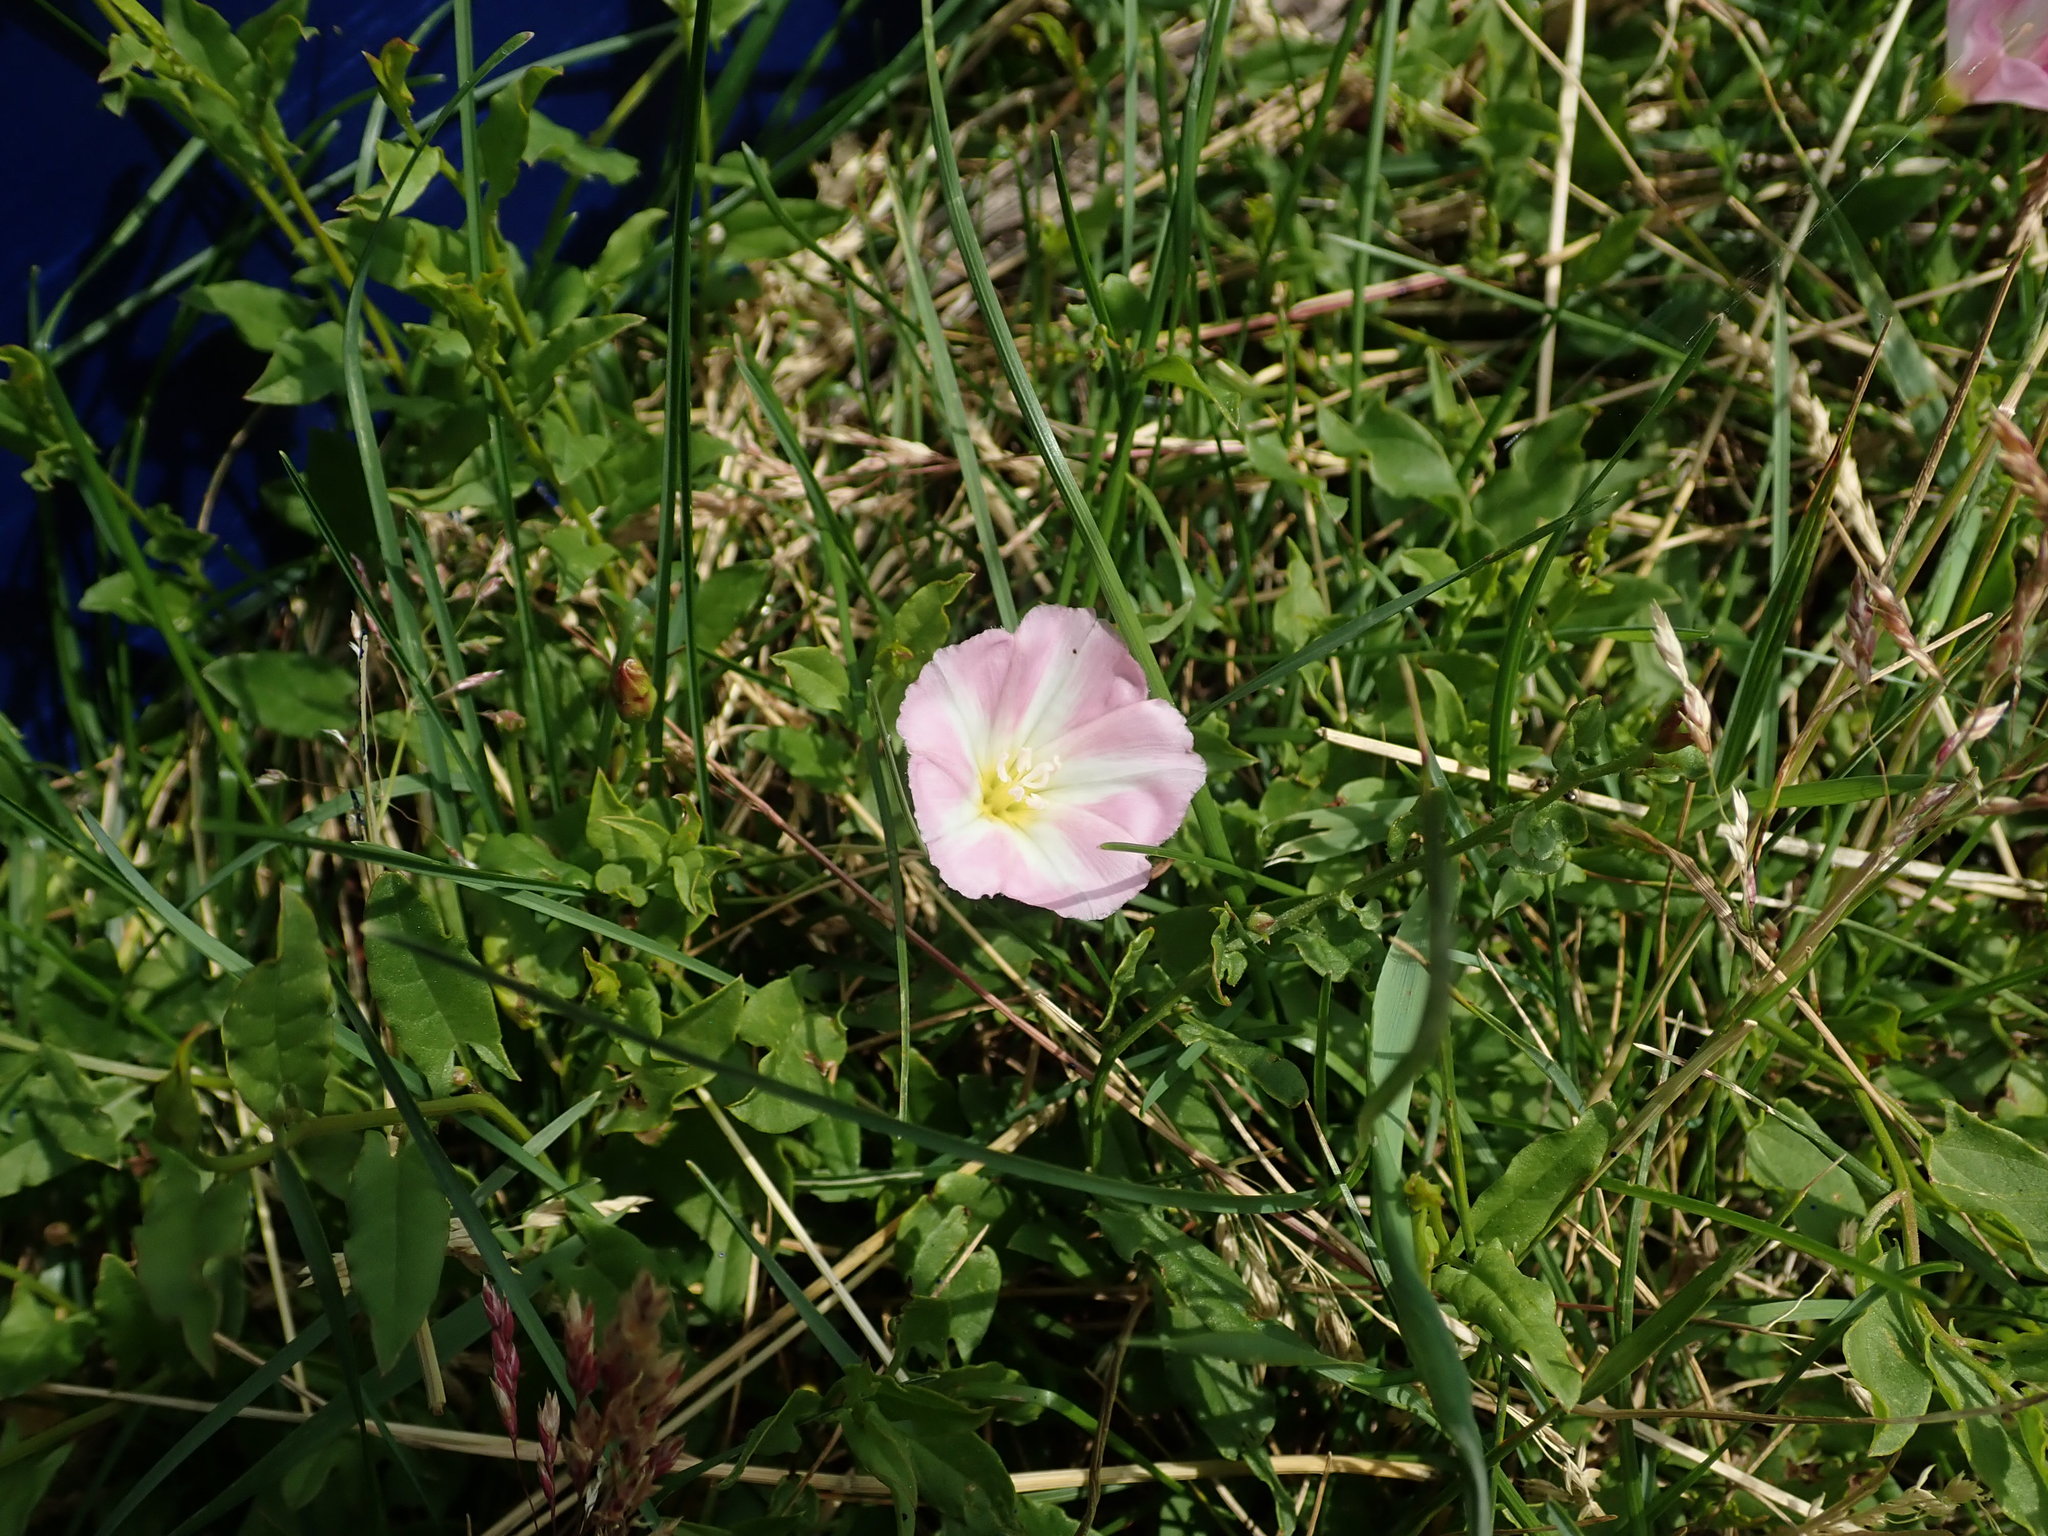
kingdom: Plantae
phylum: Tracheophyta
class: Magnoliopsida
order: Solanales
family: Convolvulaceae
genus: Convolvulus
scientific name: Convolvulus arvensis
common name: Field bindweed
